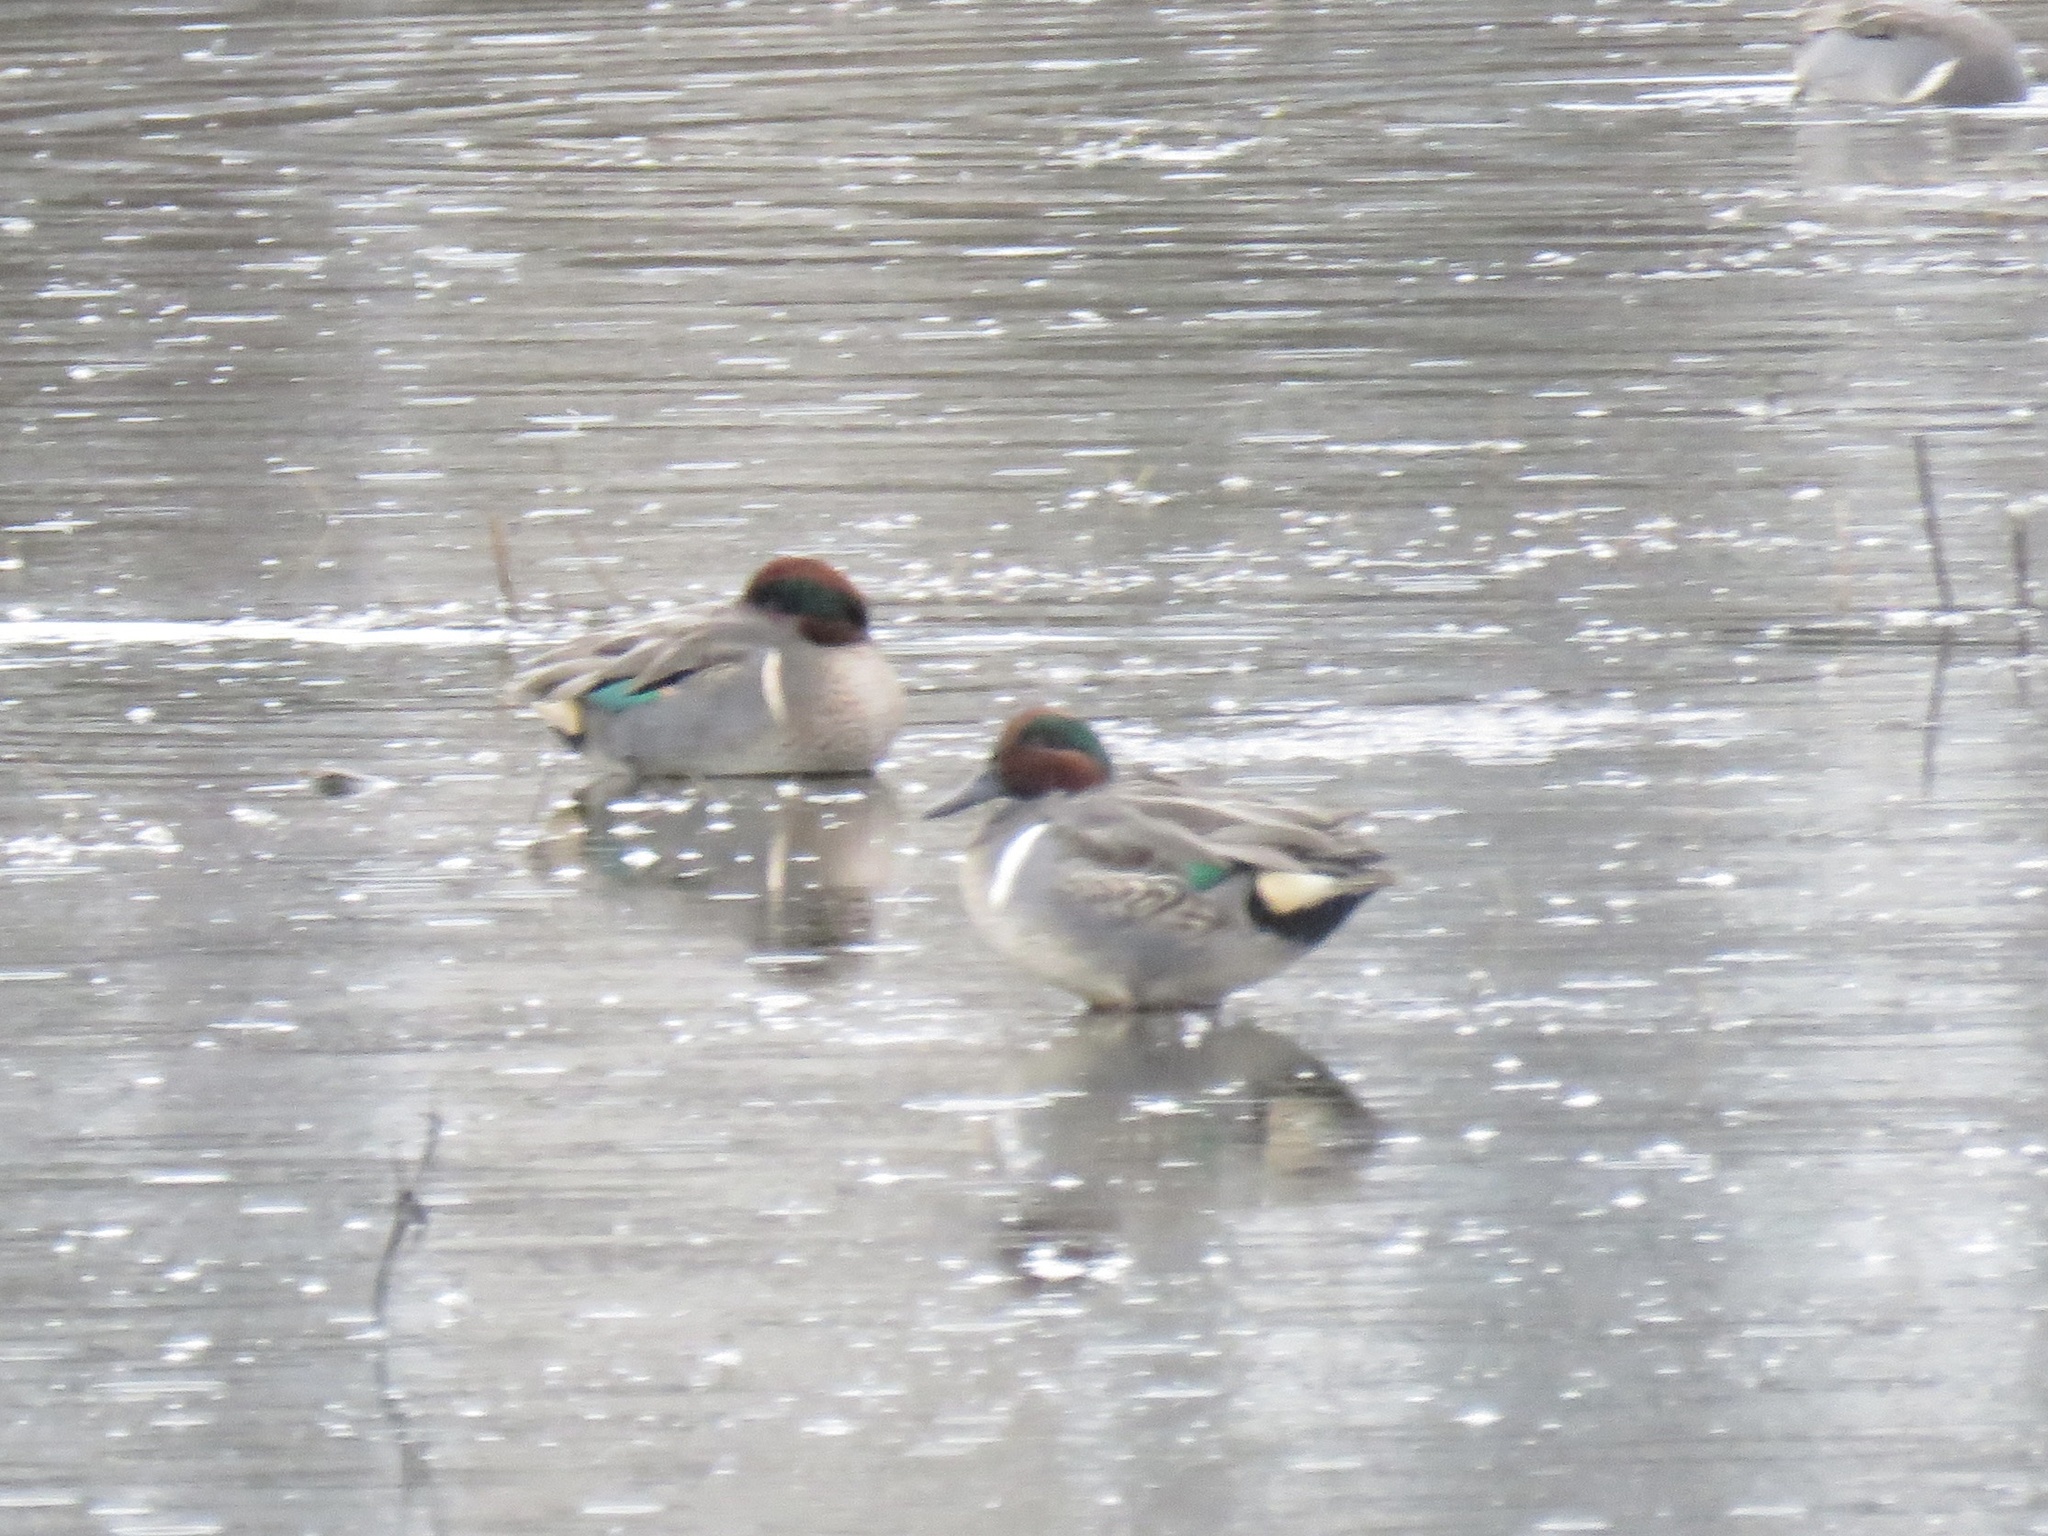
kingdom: Animalia
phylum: Chordata
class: Aves
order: Anseriformes
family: Anatidae
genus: Anas
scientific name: Anas crecca
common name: Eurasian teal
